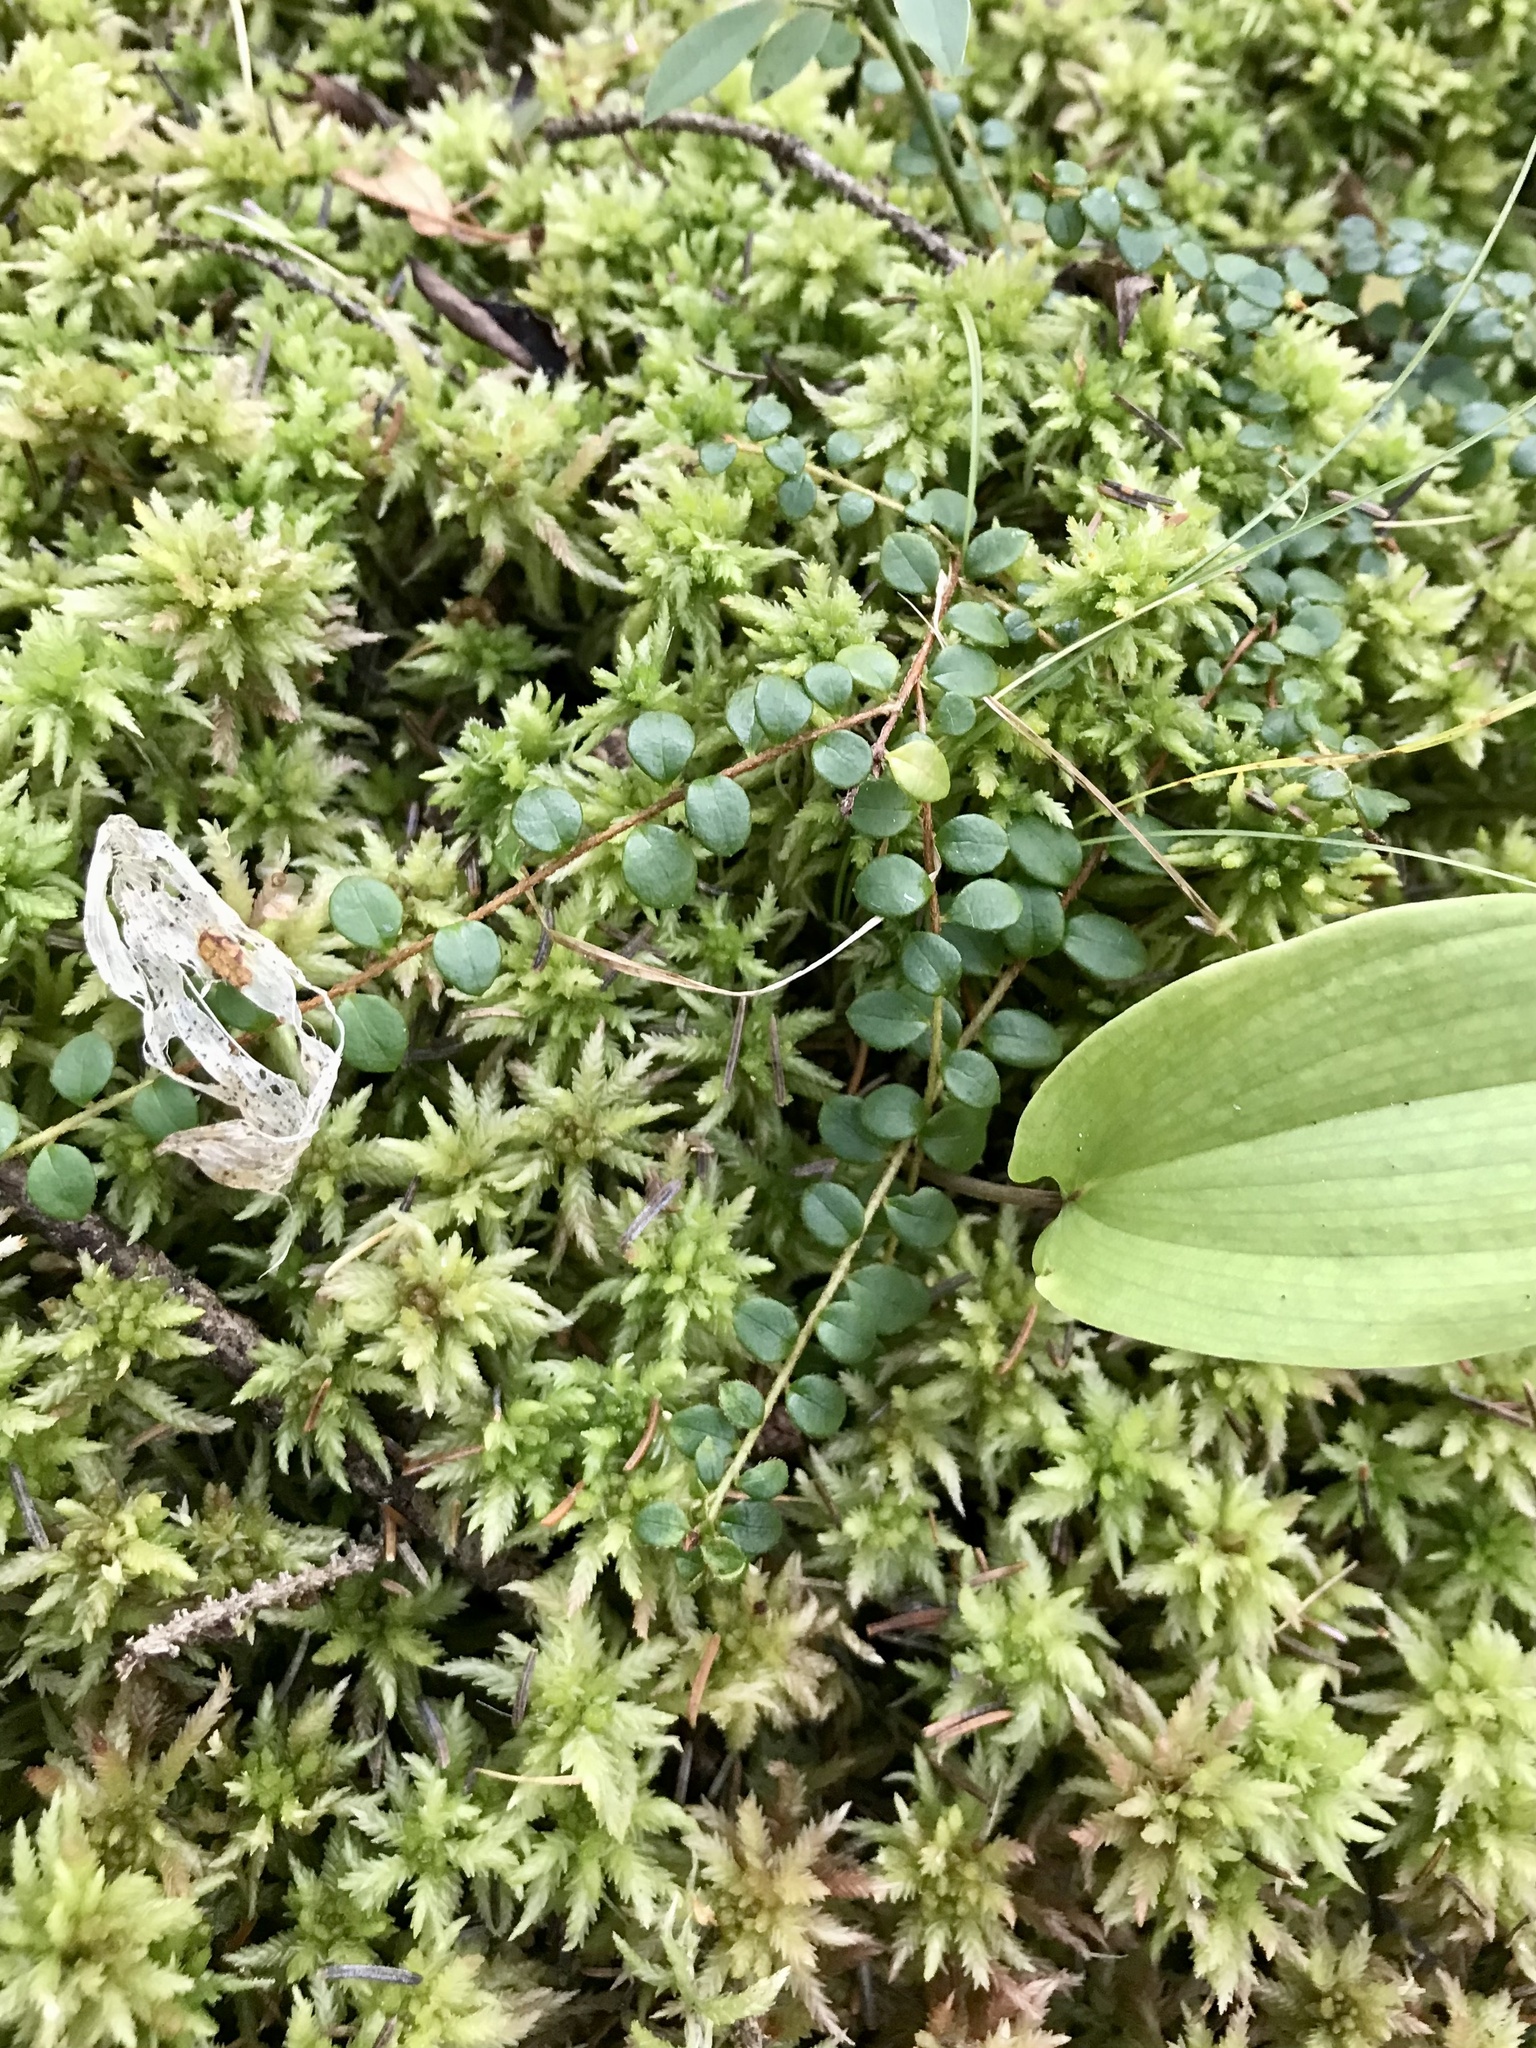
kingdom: Plantae
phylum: Tracheophyta
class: Magnoliopsida
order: Ericales
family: Ericaceae
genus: Gaultheria
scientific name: Gaultheria hispidula
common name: Cancer wintergreen
